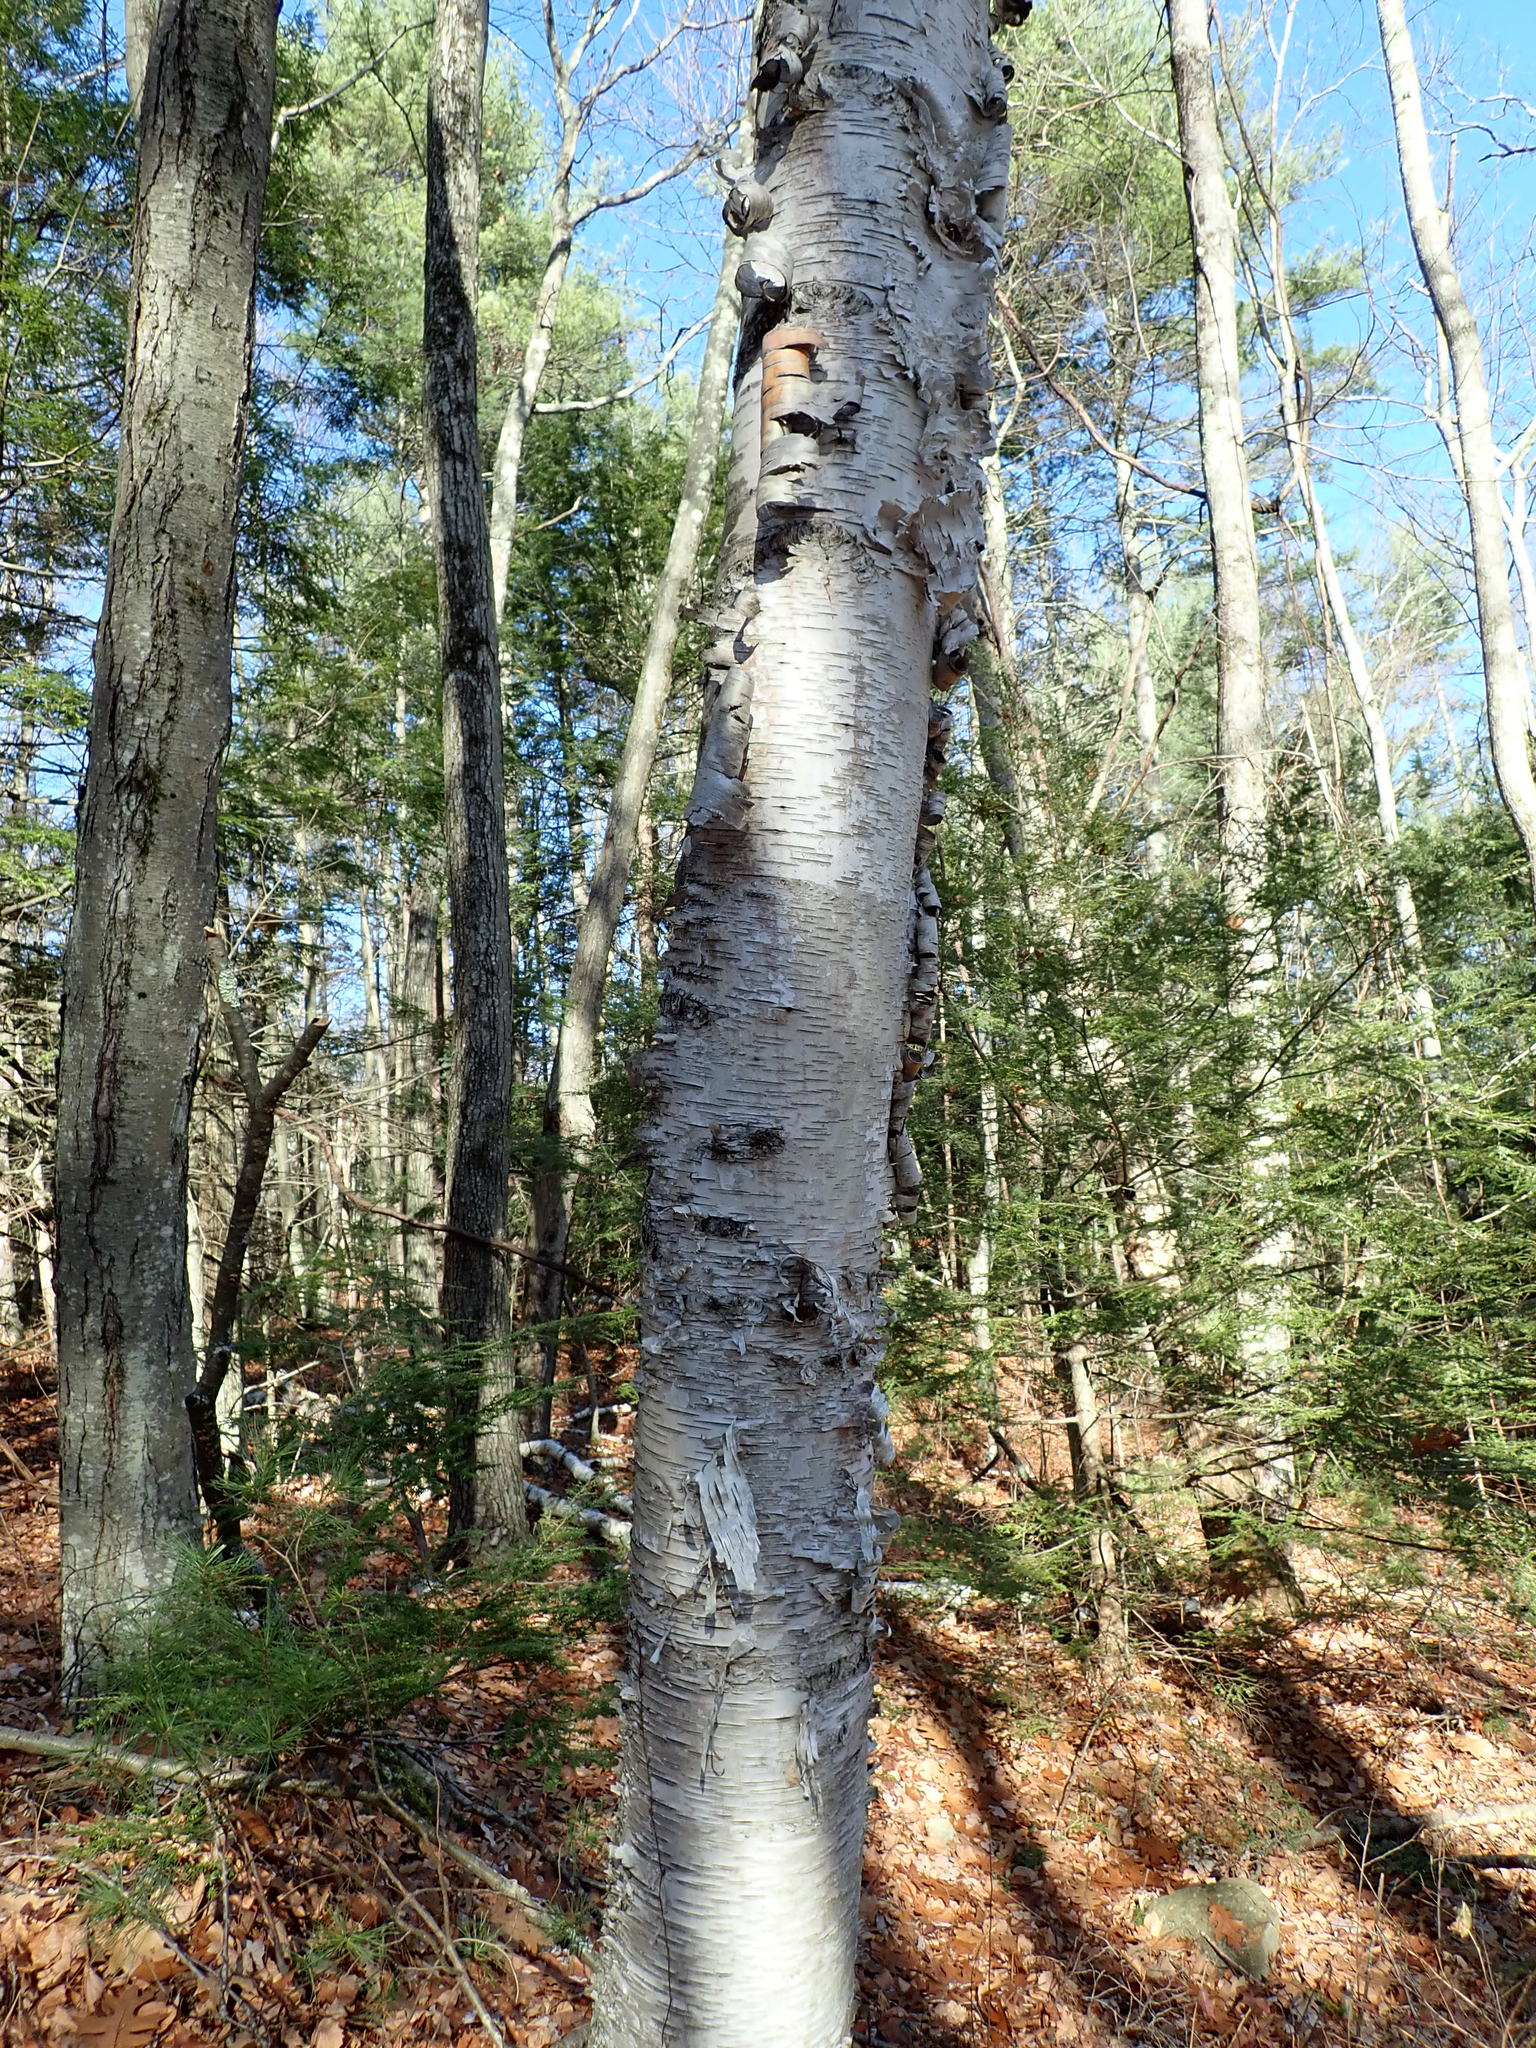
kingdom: Plantae
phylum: Tracheophyta
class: Magnoliopsida
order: Fagales
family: Betulaceae
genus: Betula
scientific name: Betula papyrifera
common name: Paper birch
